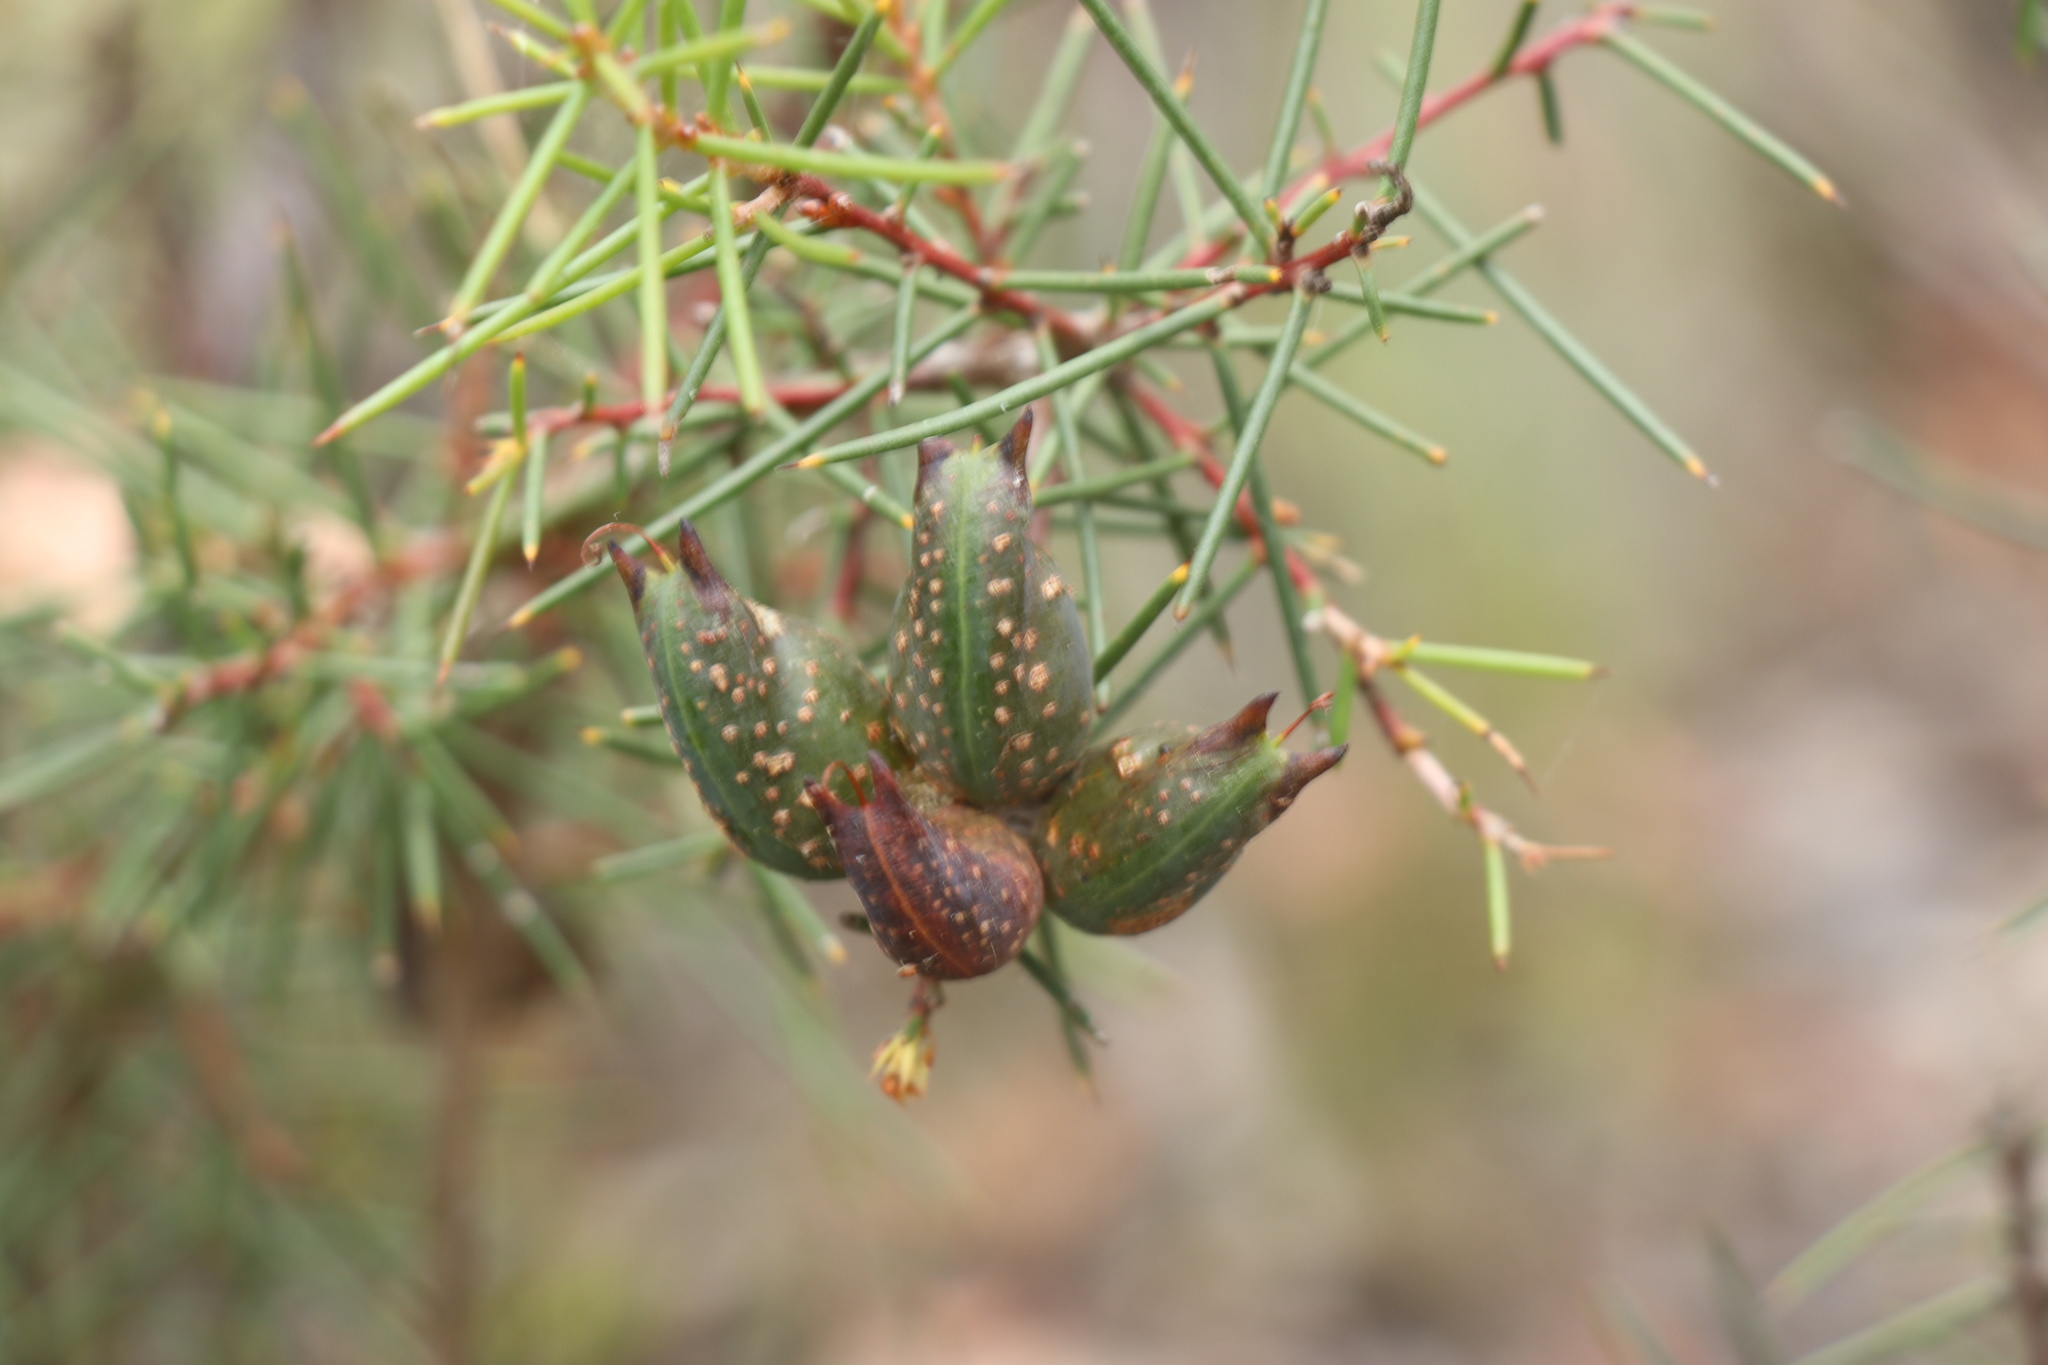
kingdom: Plantae
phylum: Tracheophyta
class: Magnoliopsida
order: Proteales
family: Proteaceae
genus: Hakea
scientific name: Hakea decurrens
